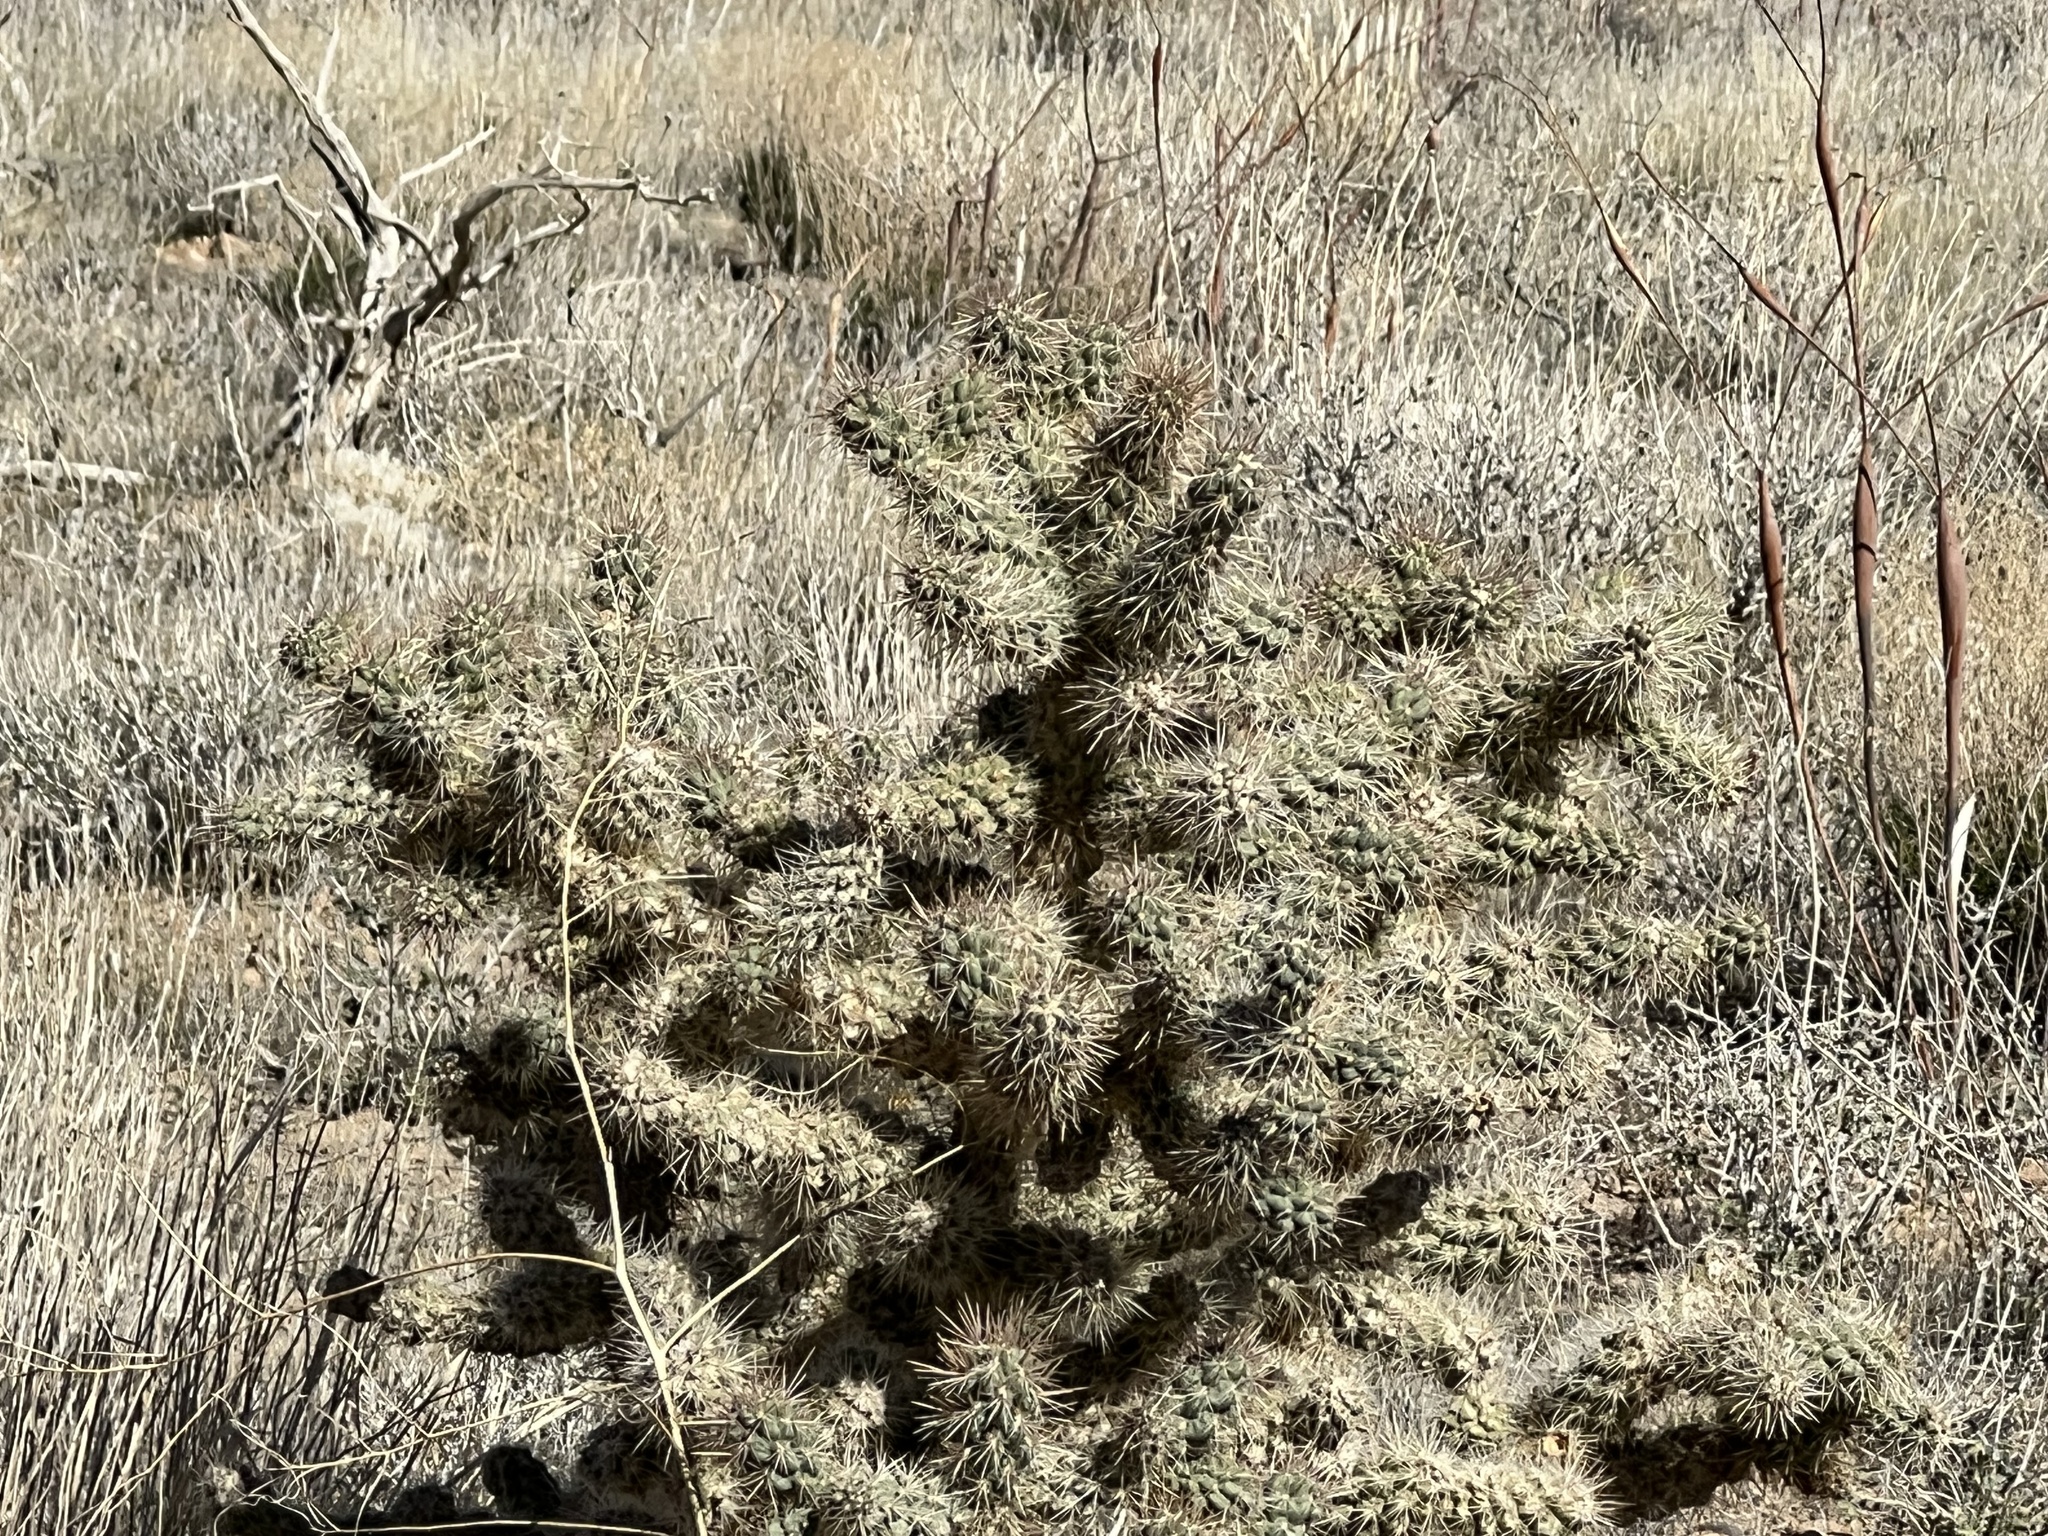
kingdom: Plantae
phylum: Tracheophyta
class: Magnoliopsida
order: Caryophyllales
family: Cactaceae
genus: Cylindropuntia
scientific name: Cylindropuntia echinocarpa
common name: Ground cholla
